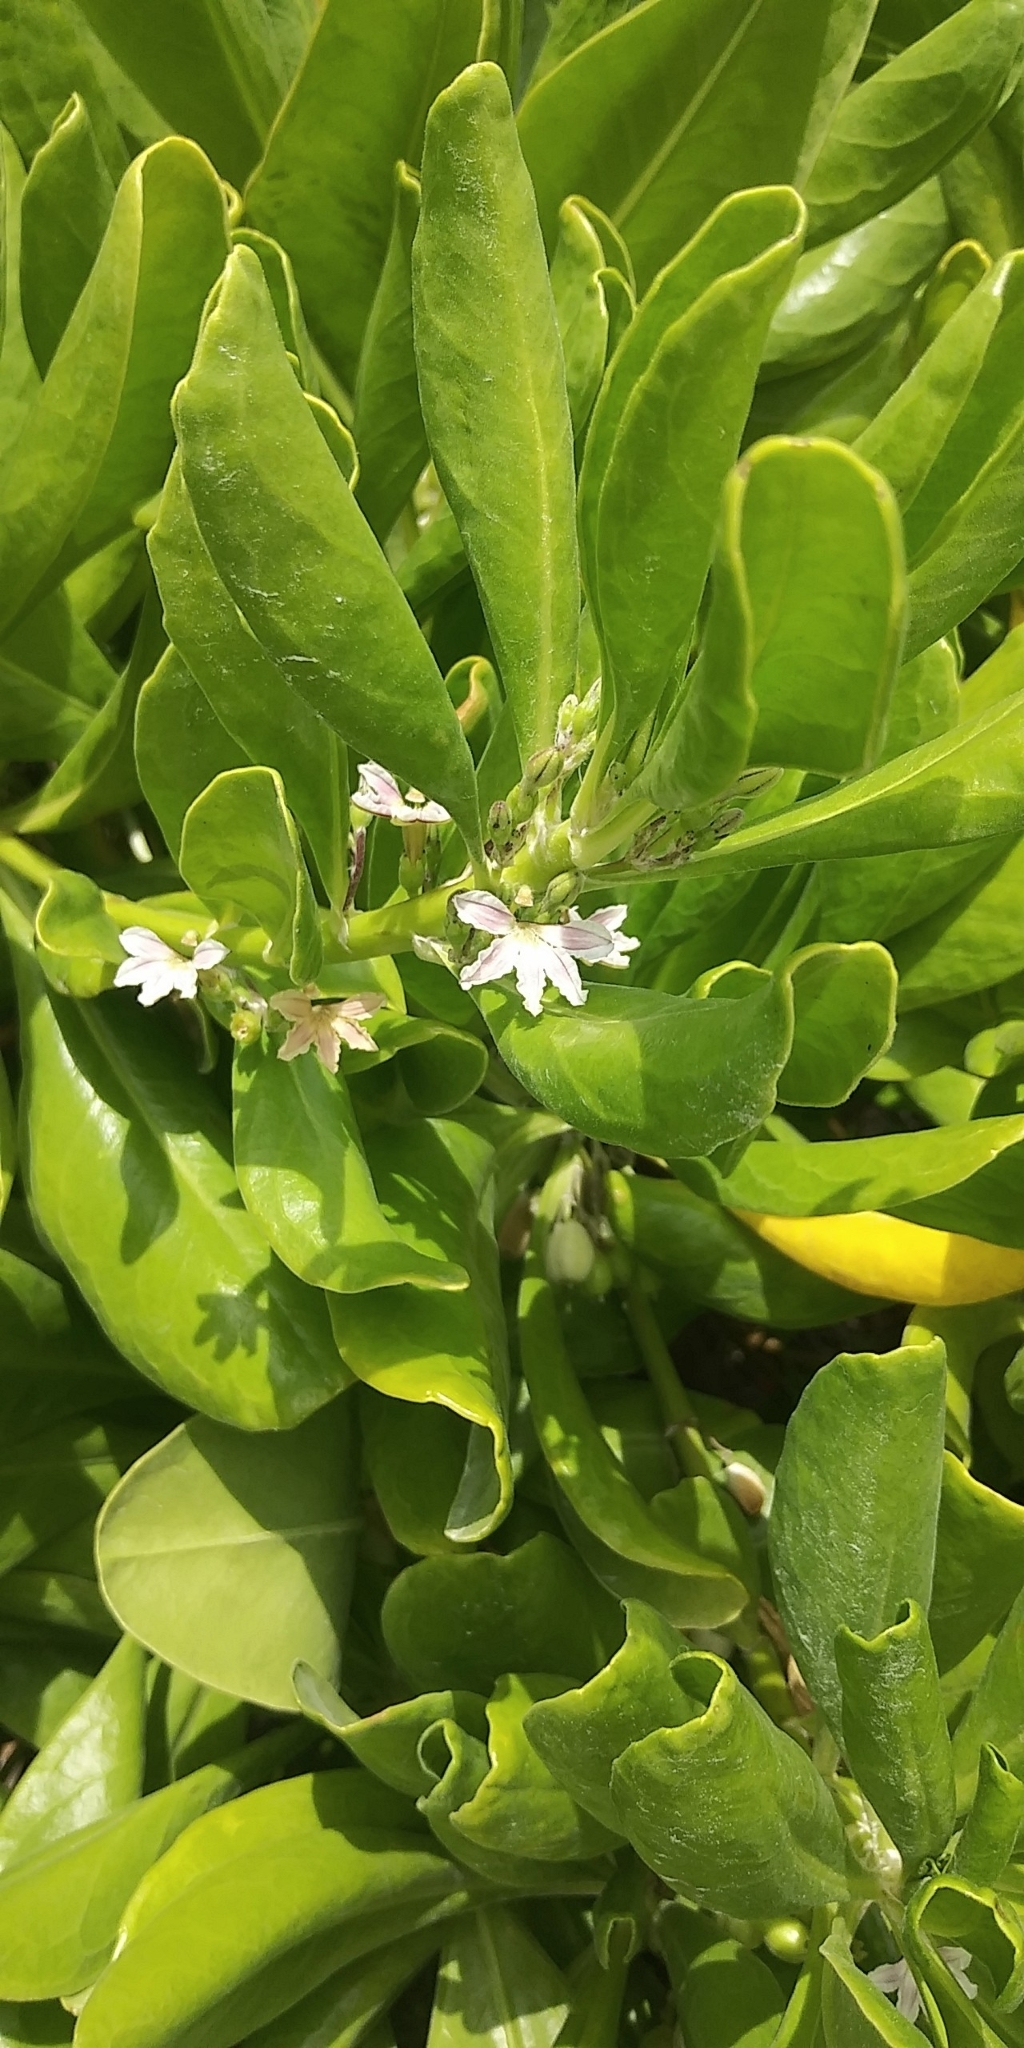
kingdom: Plantae
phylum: Tracheophyta
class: Magnoliopsida
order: Asterales
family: Goodeniaceae
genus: Scaevola
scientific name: Scaevola taccada
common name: Sea lettucetree
